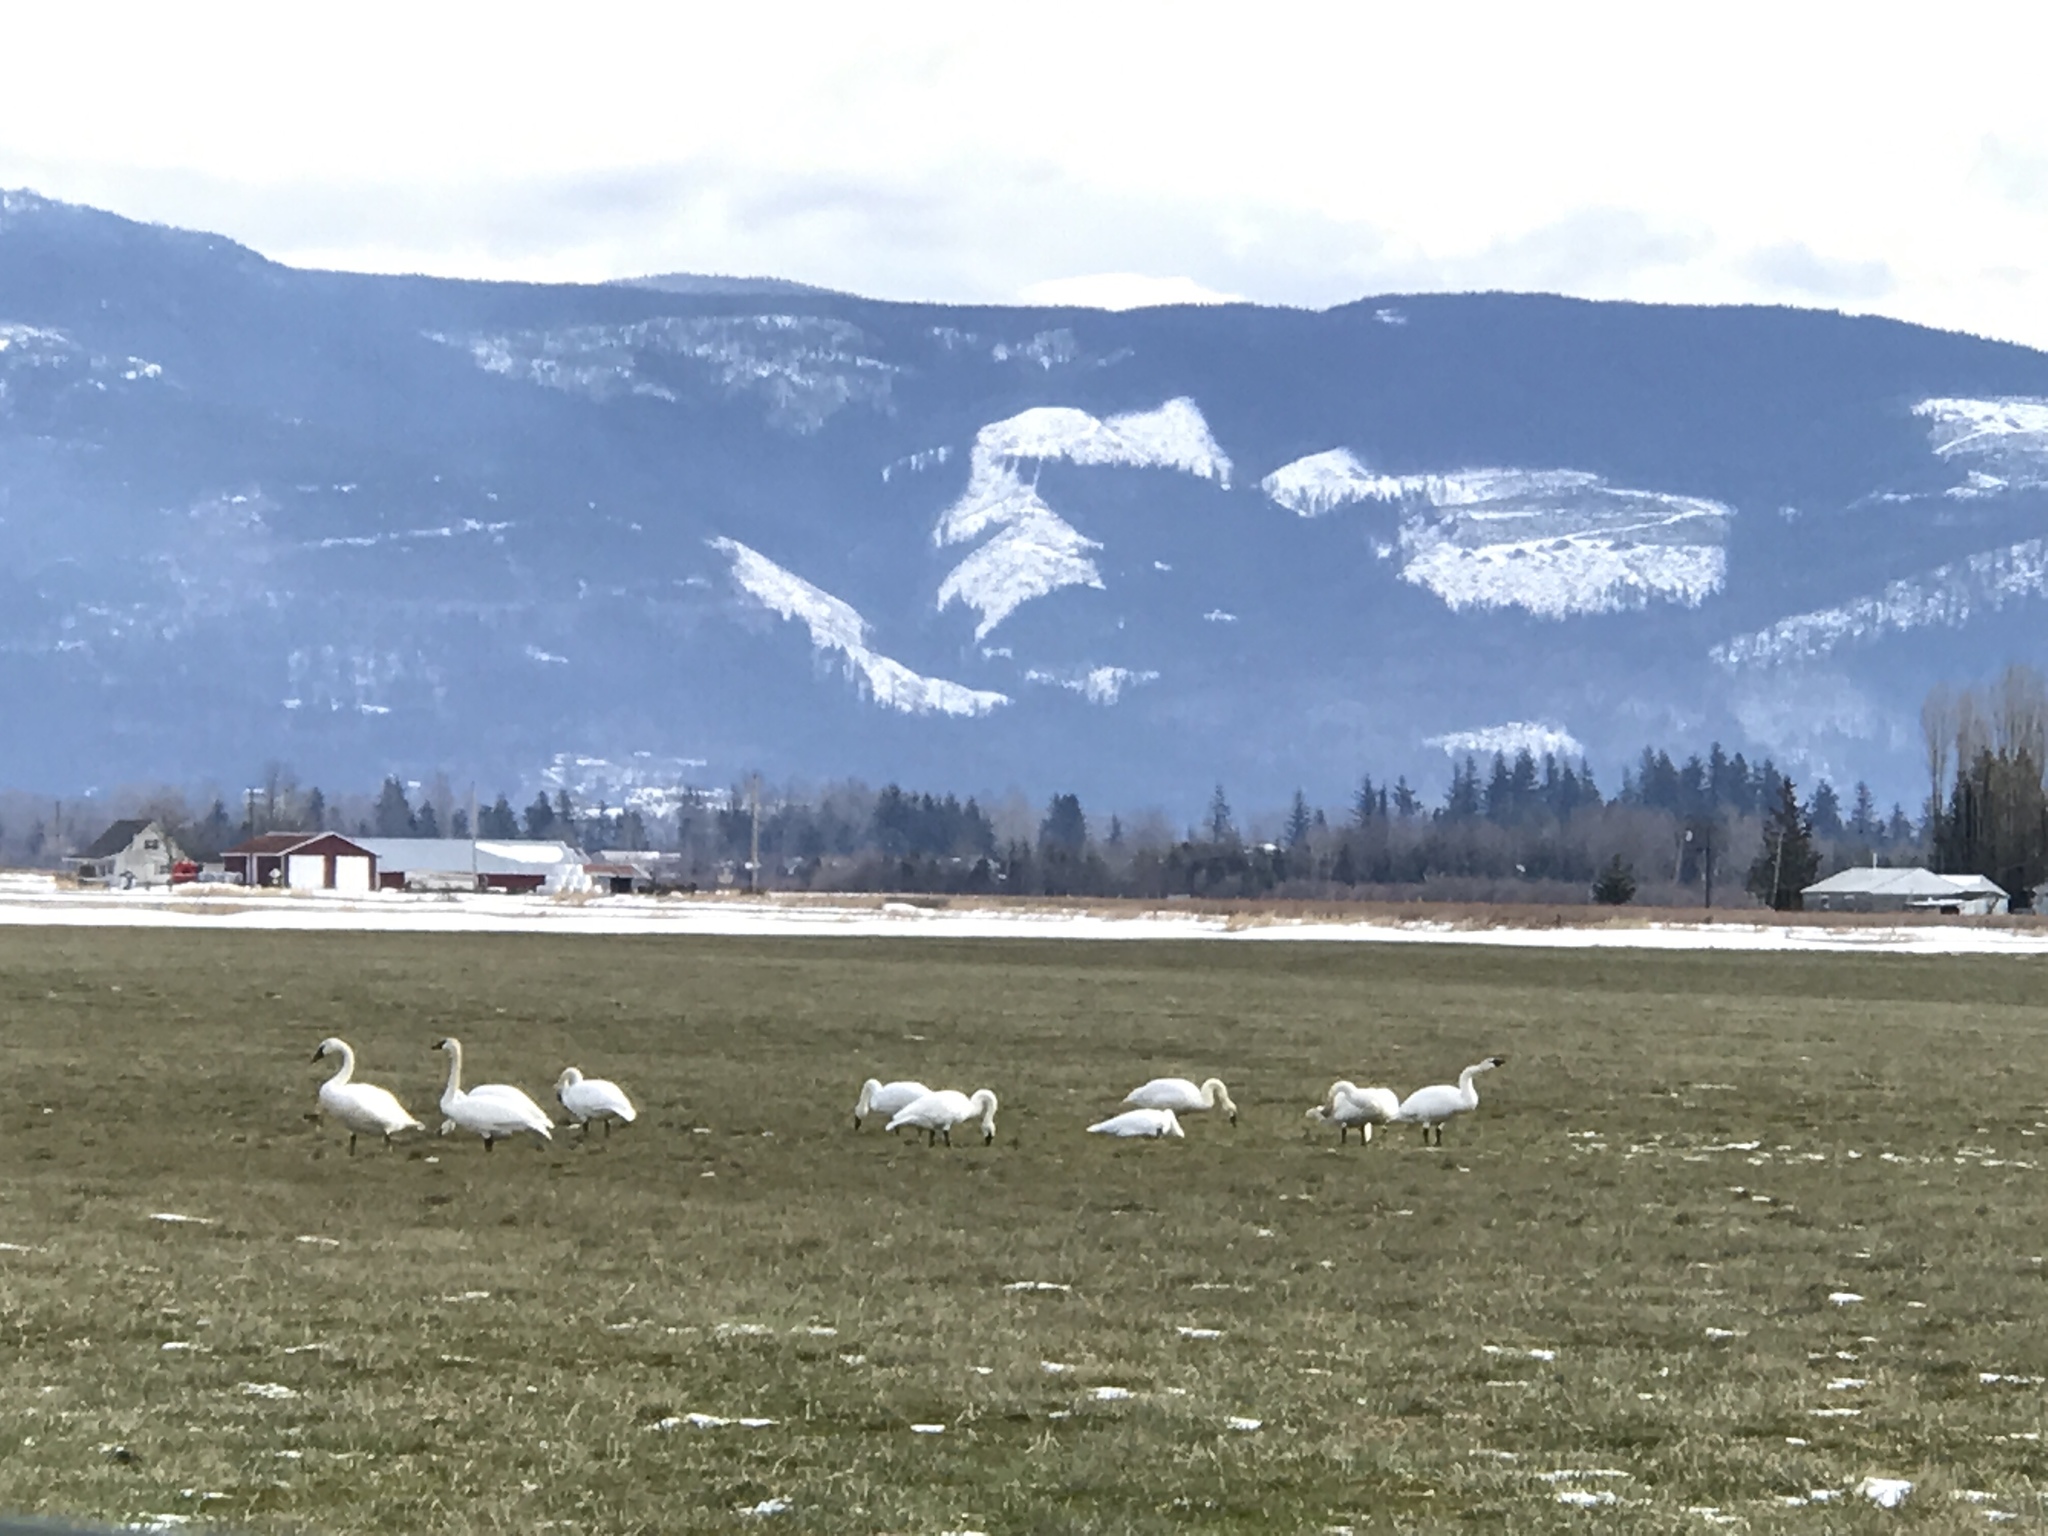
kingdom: Animalia
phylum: Chordata
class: Aves
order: Anseriformes
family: Anatidae
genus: Cygnus
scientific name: Cygnus buccinator
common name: Trumpeter swan
